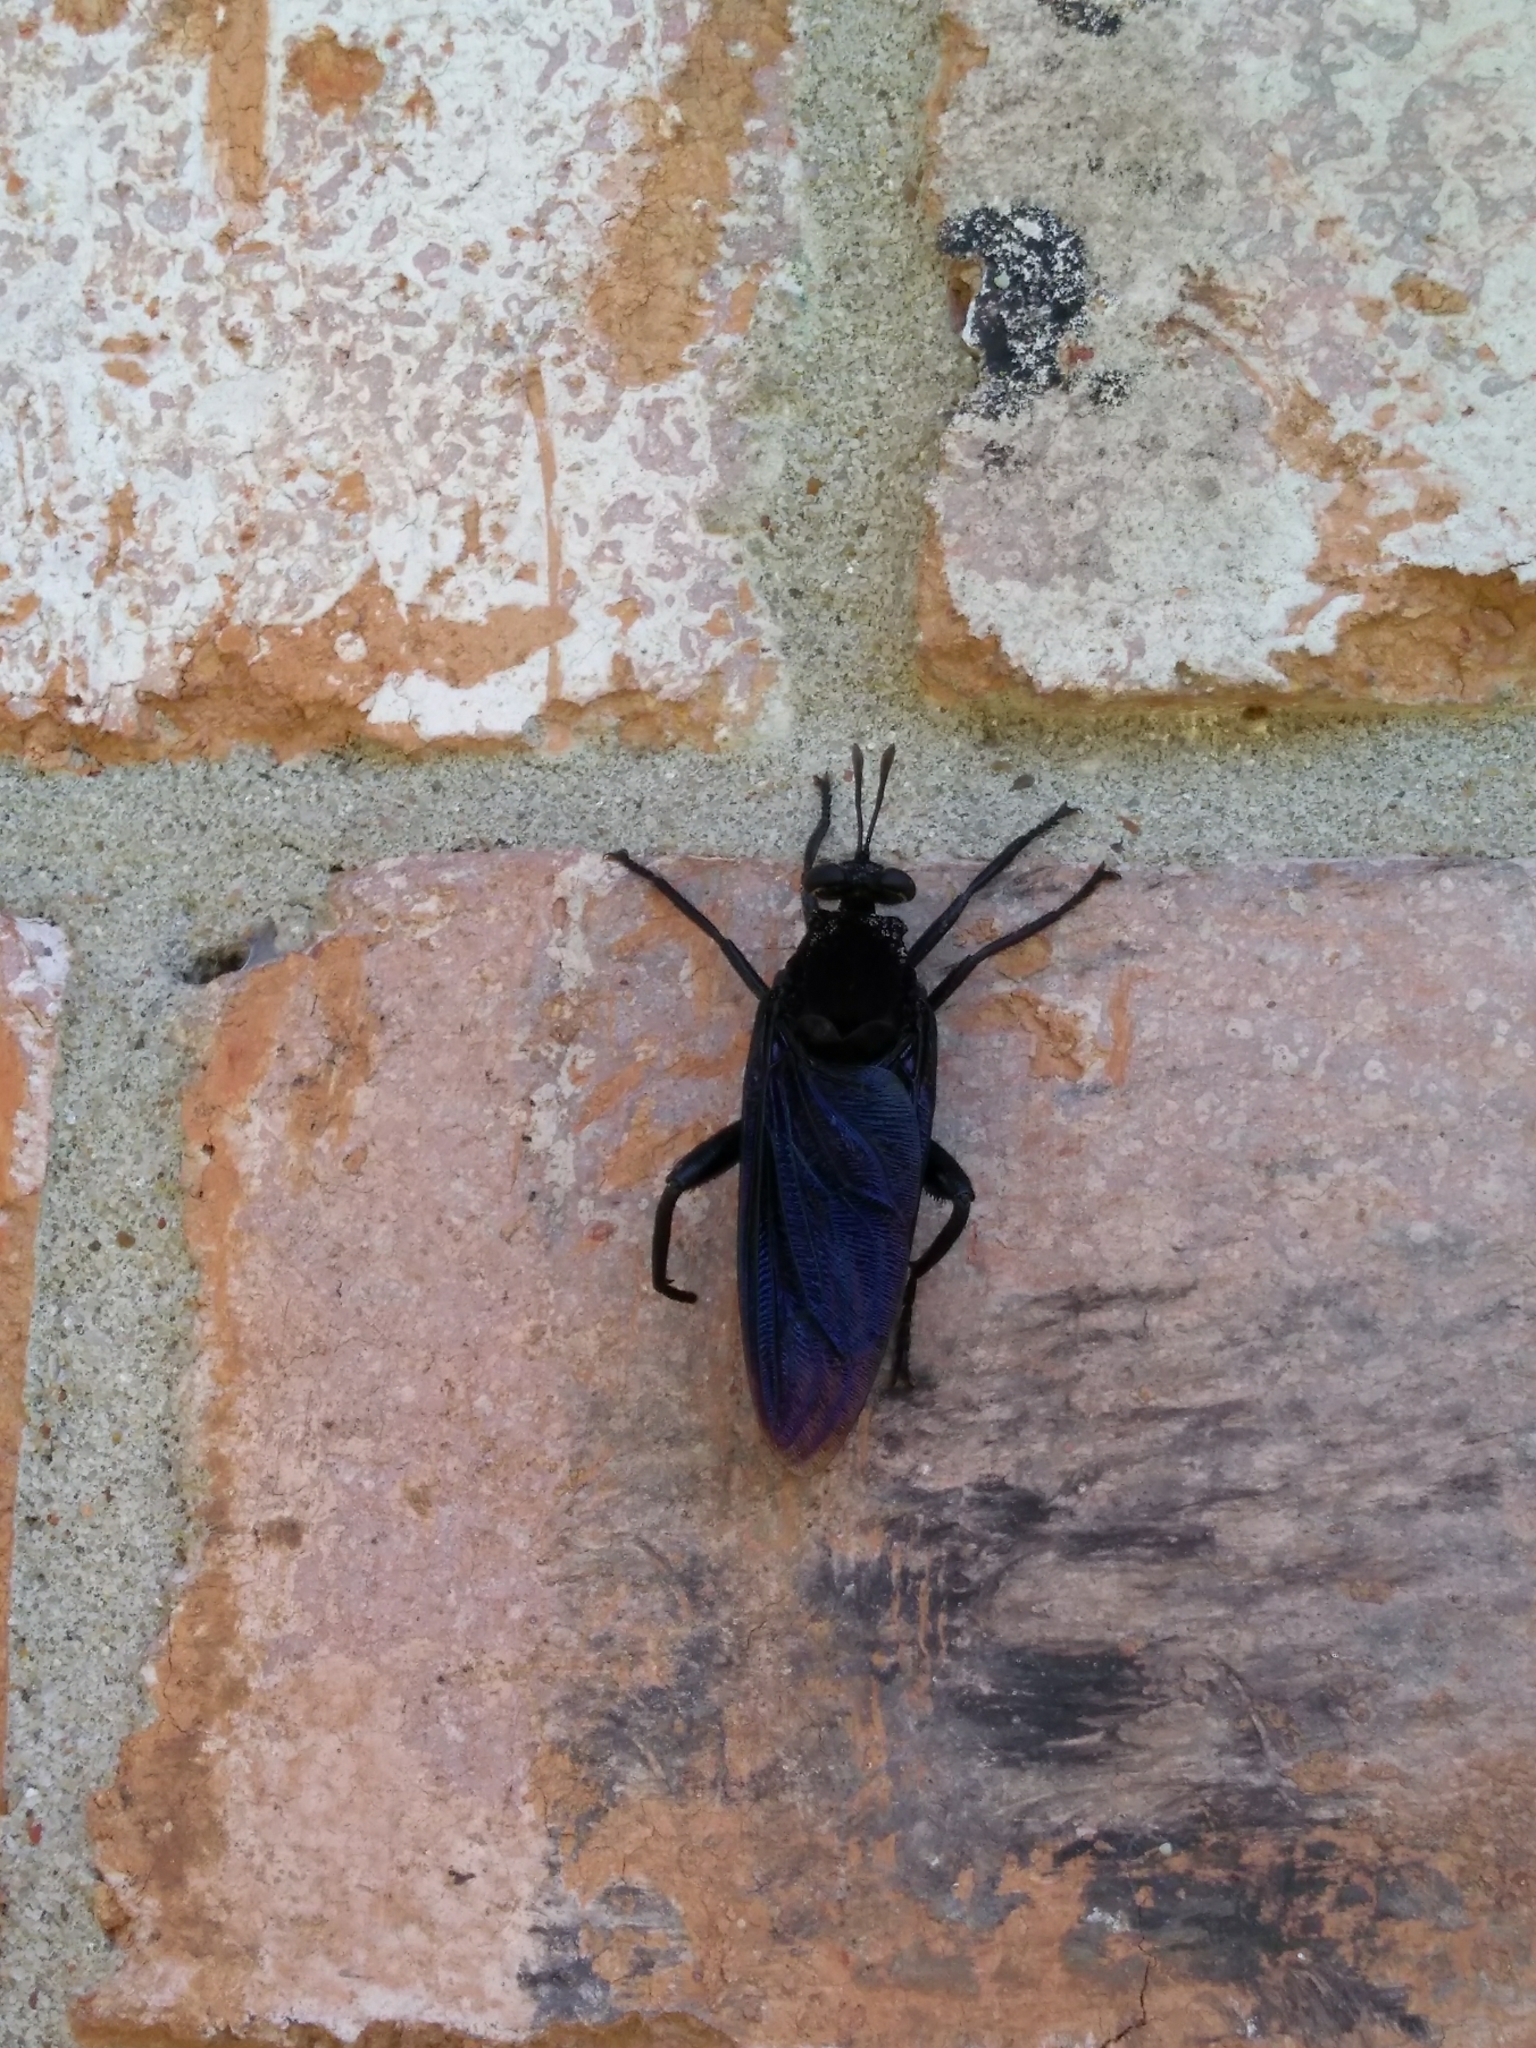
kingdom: Animalia
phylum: Arthropoda
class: Insecta
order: Diptera
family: Mydidae
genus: Mydas
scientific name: Mydas clavatus
